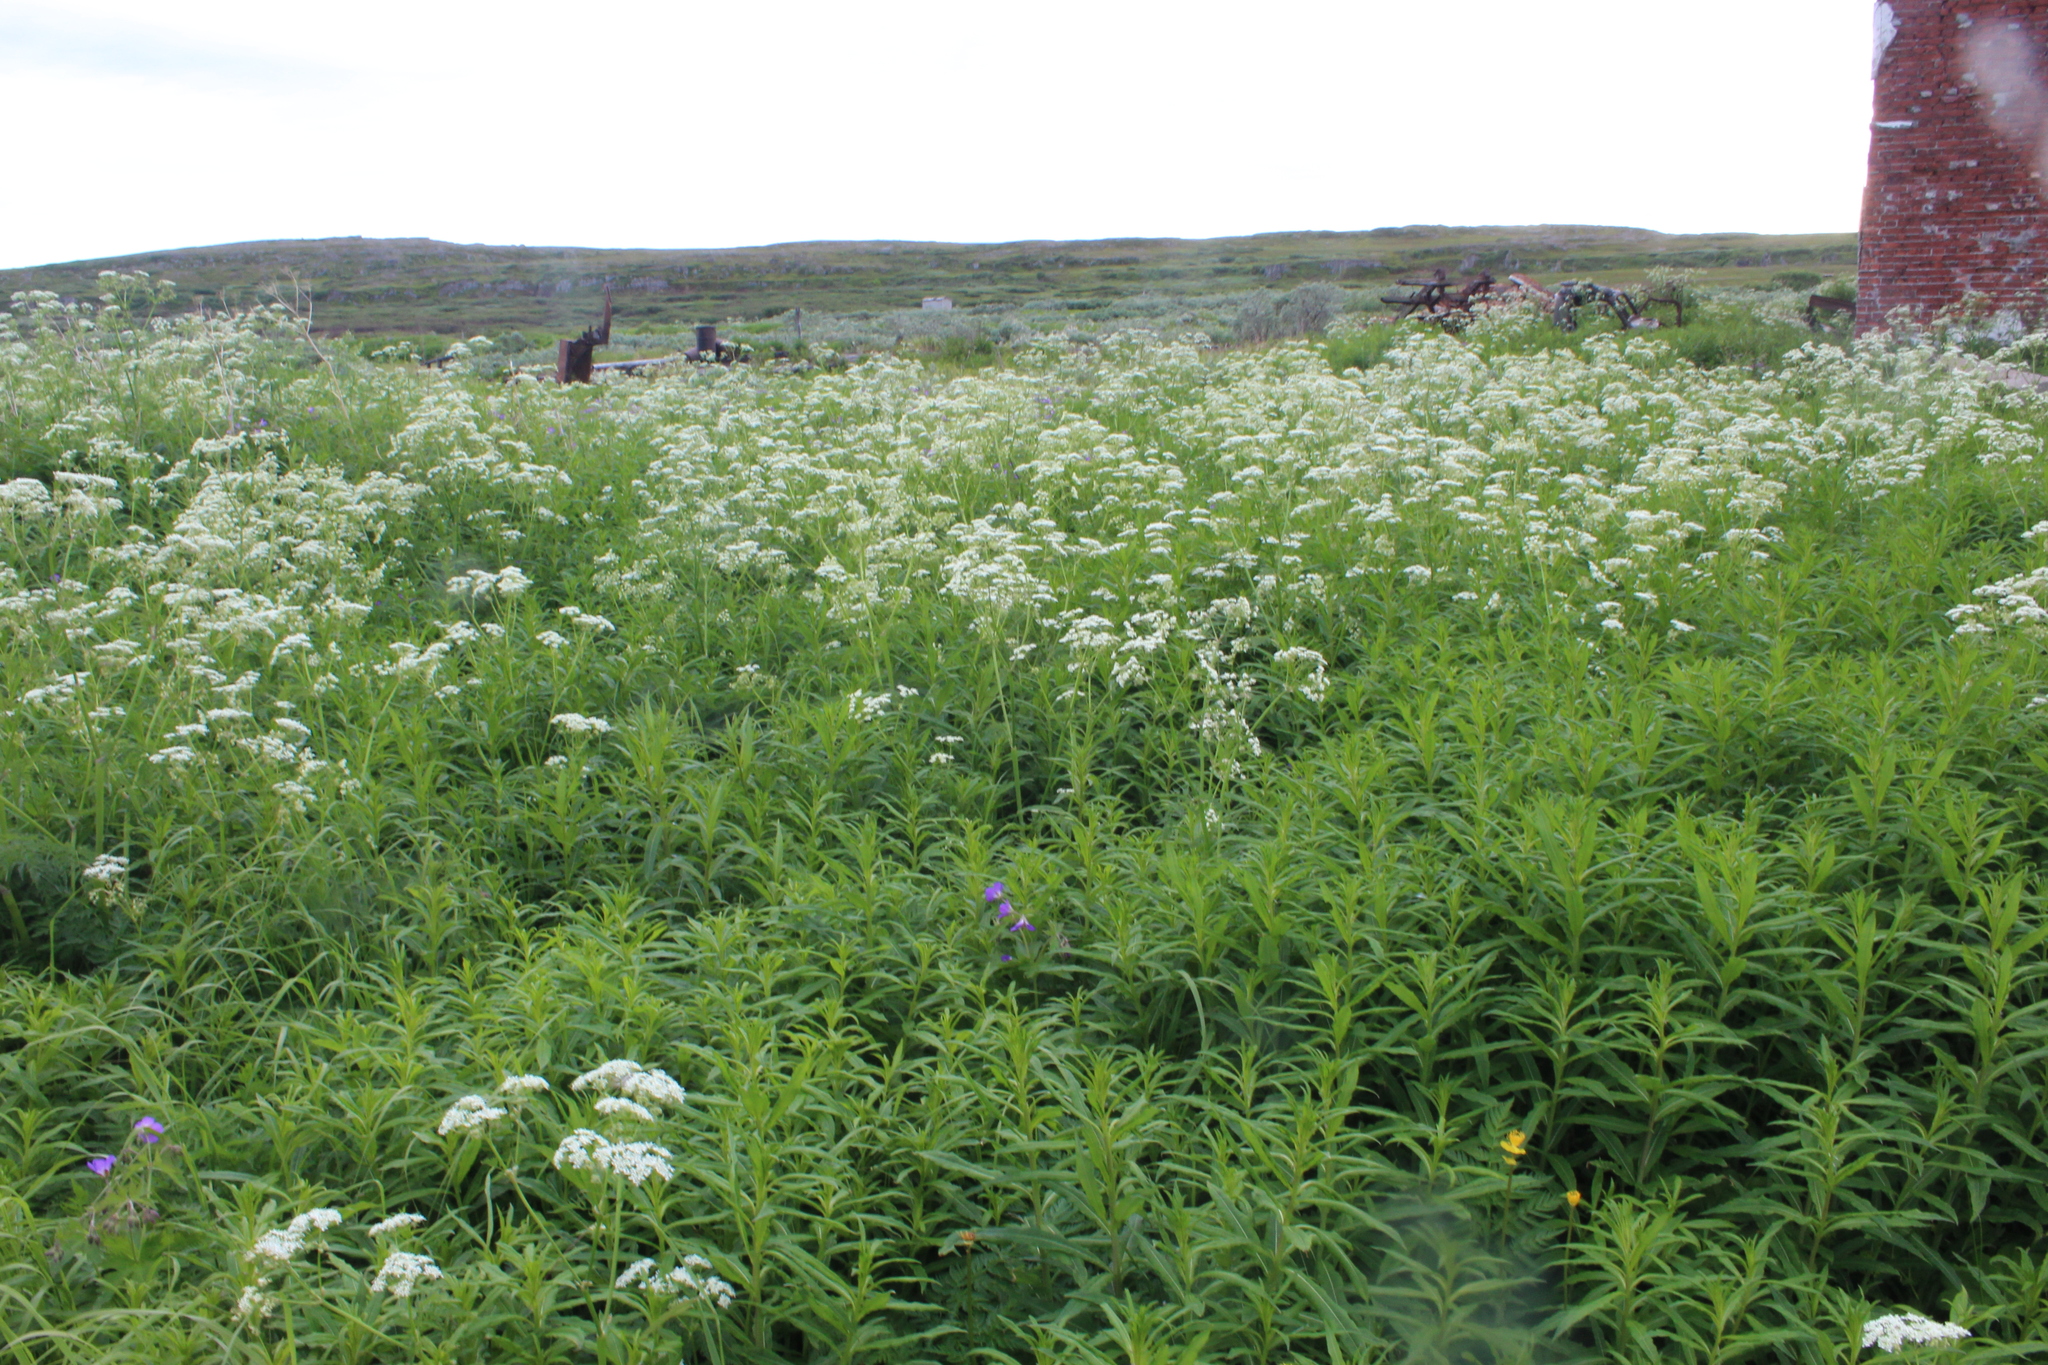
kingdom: Plantae
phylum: Tracheophyta
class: Magnoliopsida
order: Apiales
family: Apiaceae
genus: Anthriscus
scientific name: Anthriscus sylvestris
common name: Cow parsley
